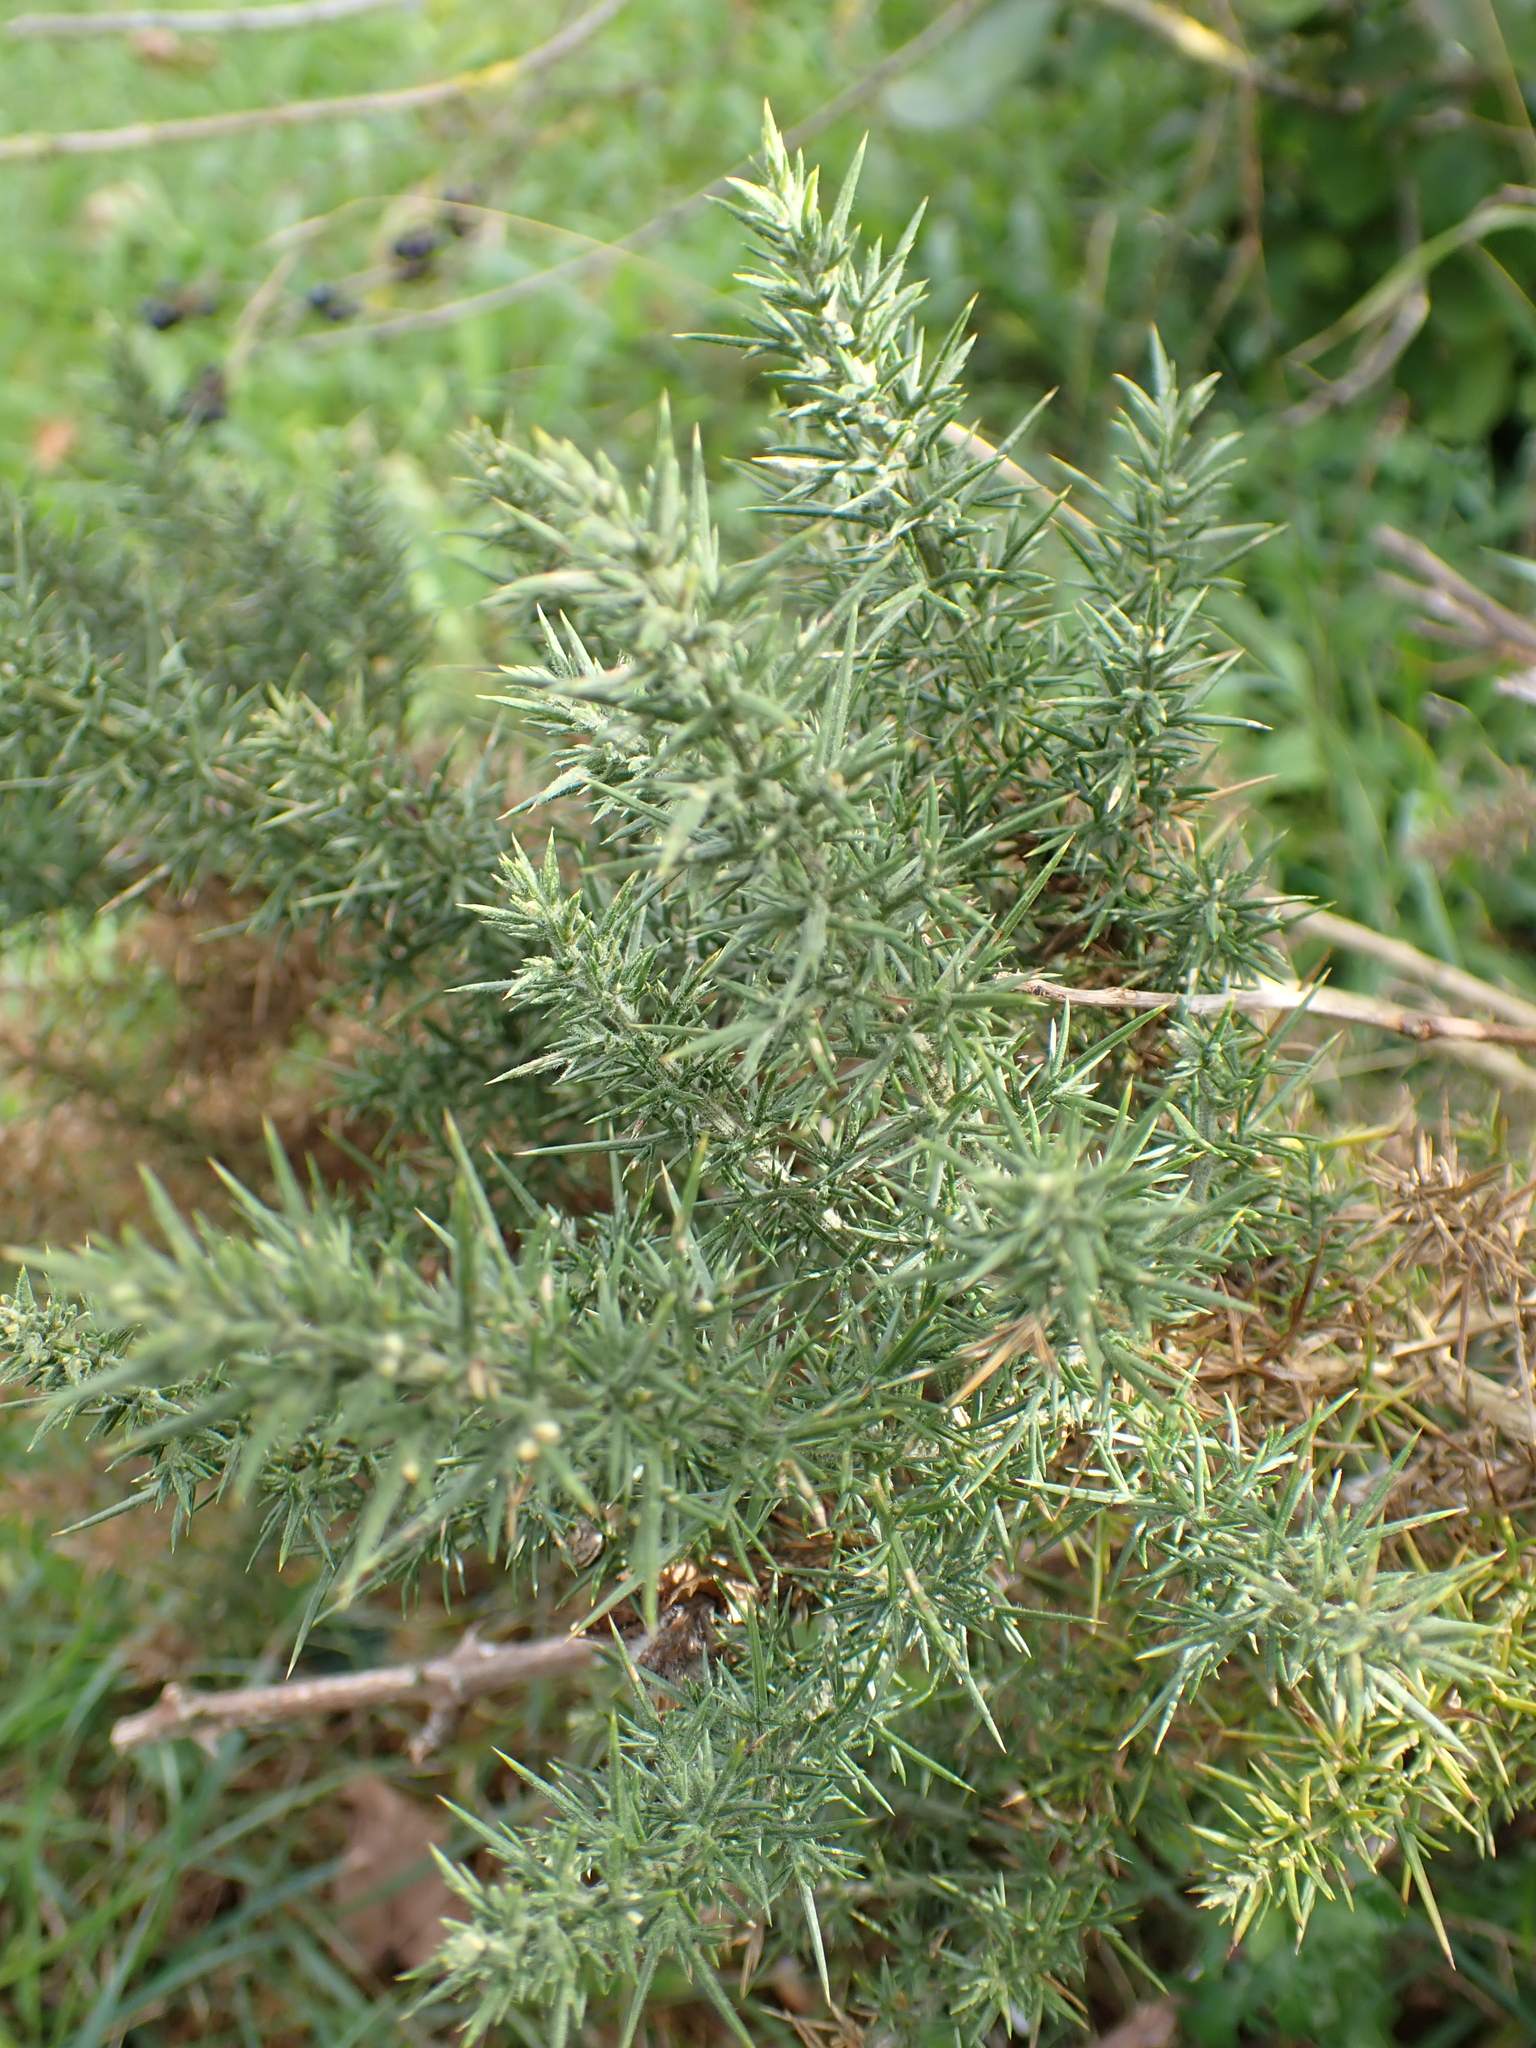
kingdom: Plantae
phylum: Tracheophyta
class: Magnoliopsida
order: Fabales
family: Fabaceae
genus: Ulex
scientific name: Ulex europaeus
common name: Common gorse
